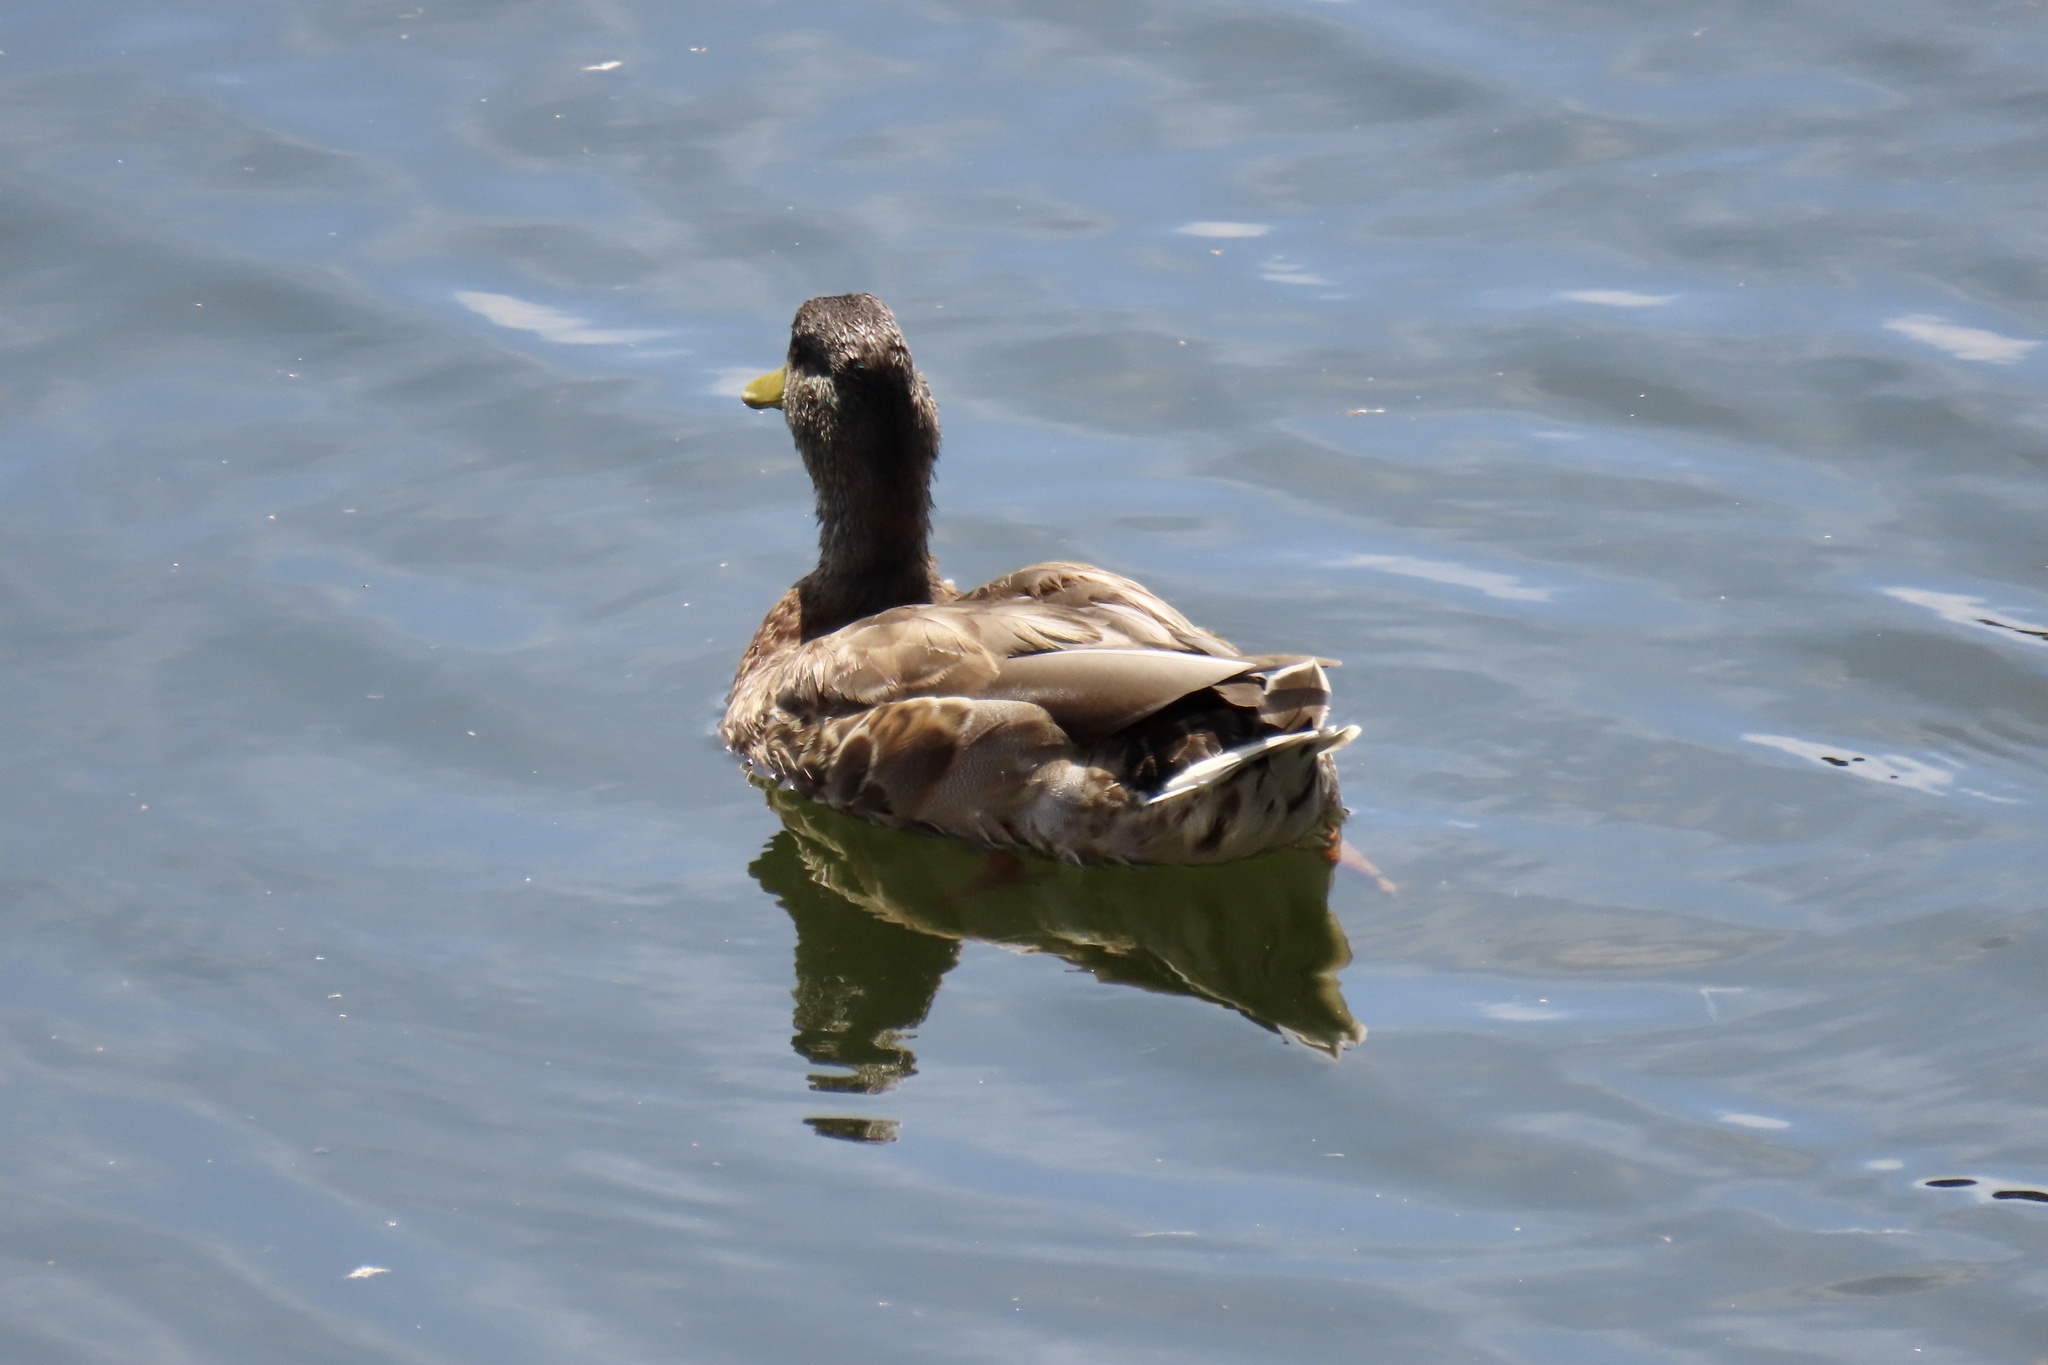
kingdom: Animalia
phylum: Chordata
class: Aves
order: Anseriformes
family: Anatidae
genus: Anas
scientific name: Anas platyrhynchos
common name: Mallard
